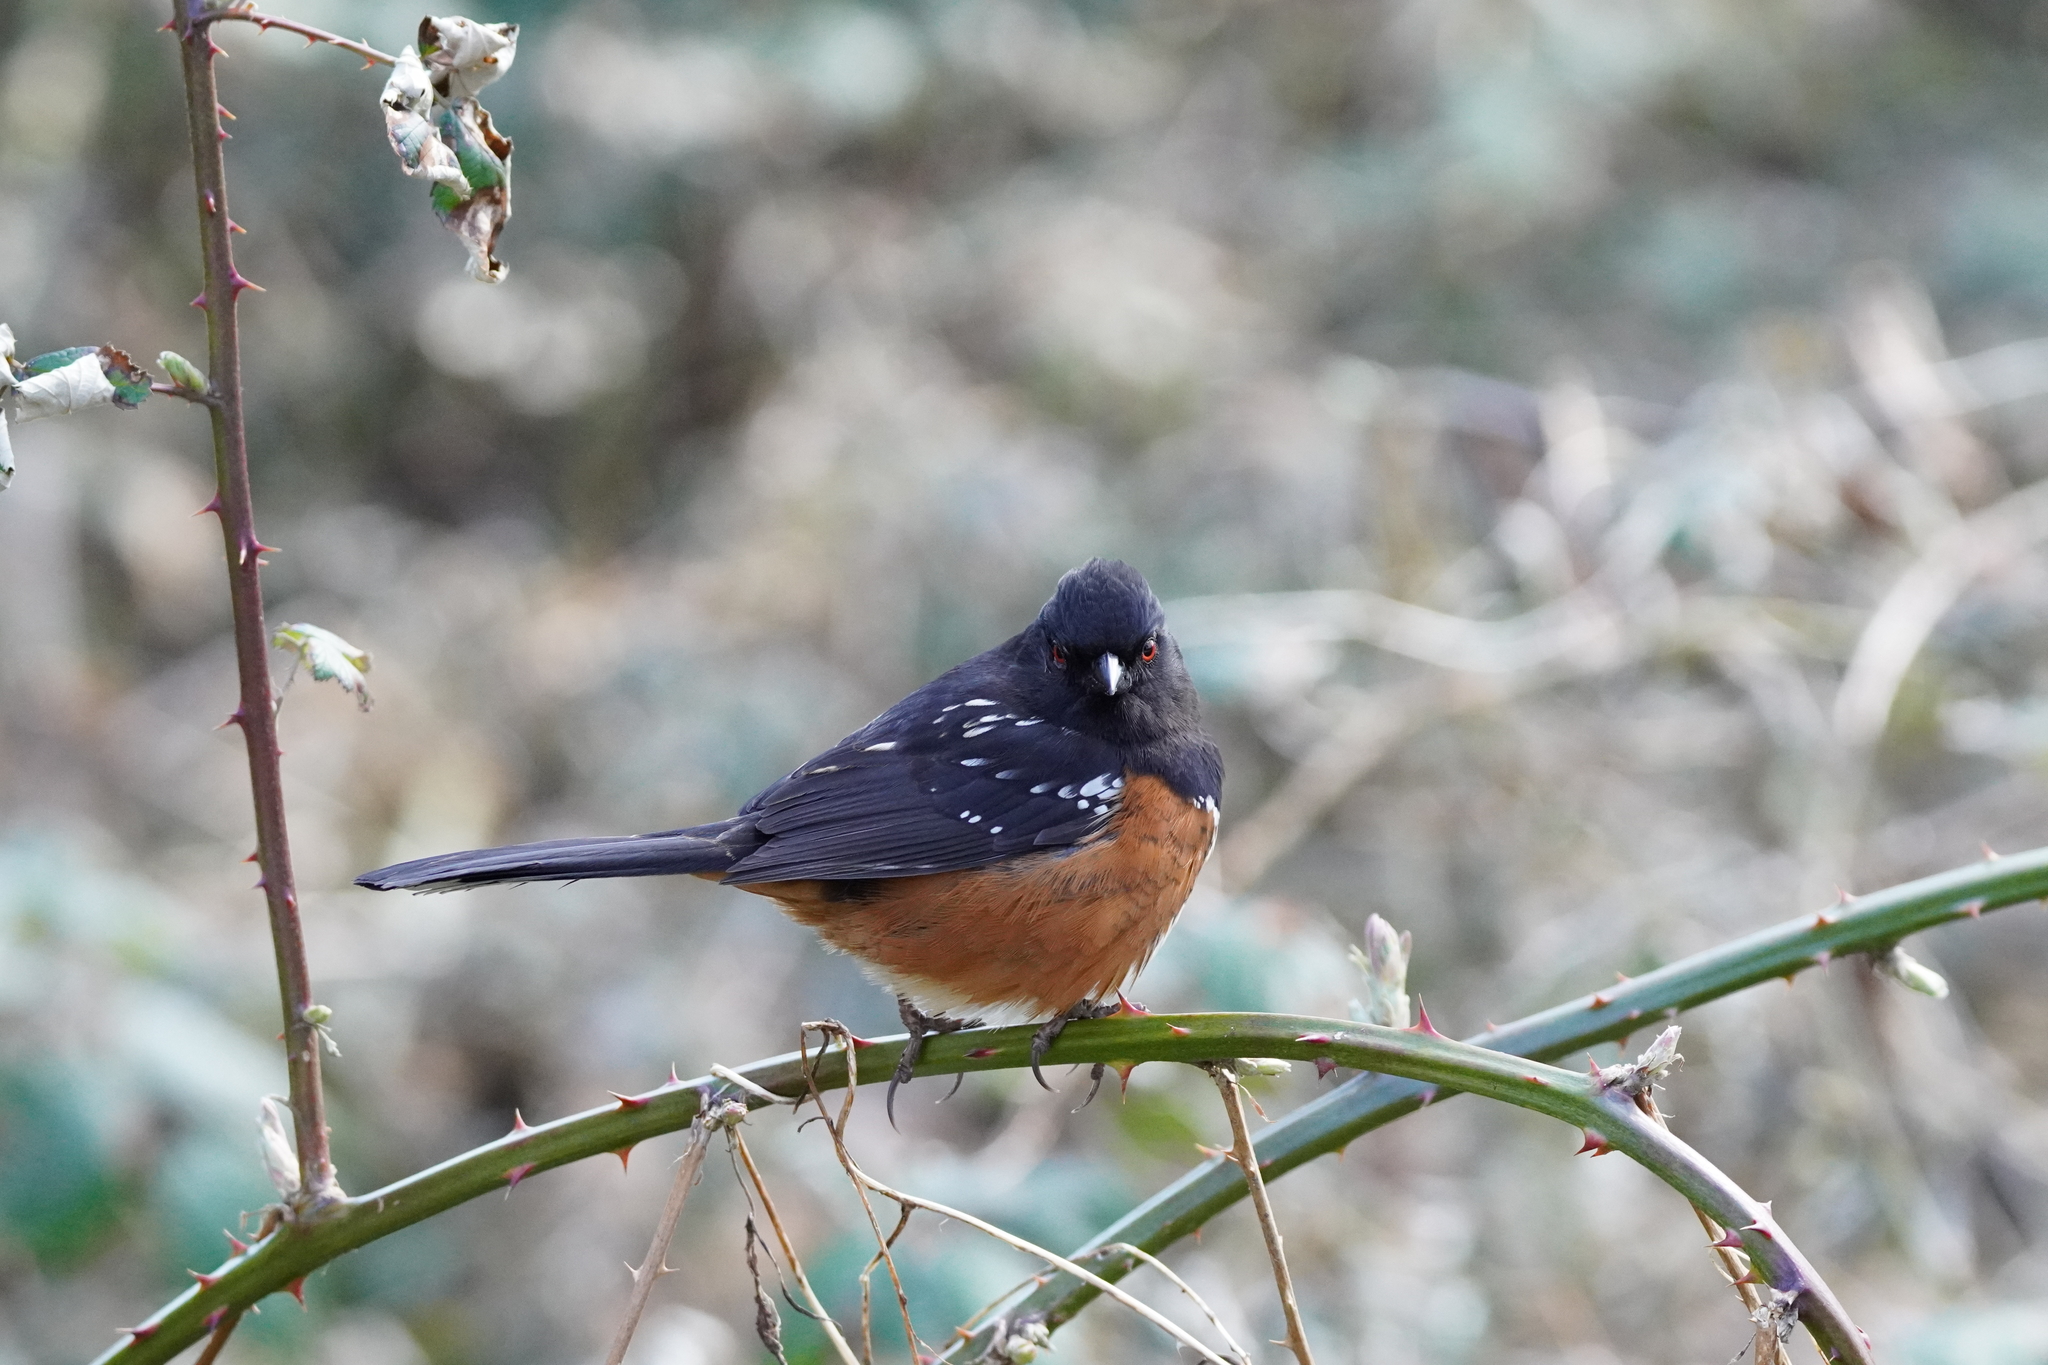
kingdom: Animalia
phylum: Chordata
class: Aves
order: Passeriformes
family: Passerellidae
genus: Pipilo
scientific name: Pipilo maculatus
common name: Spotted towhee
